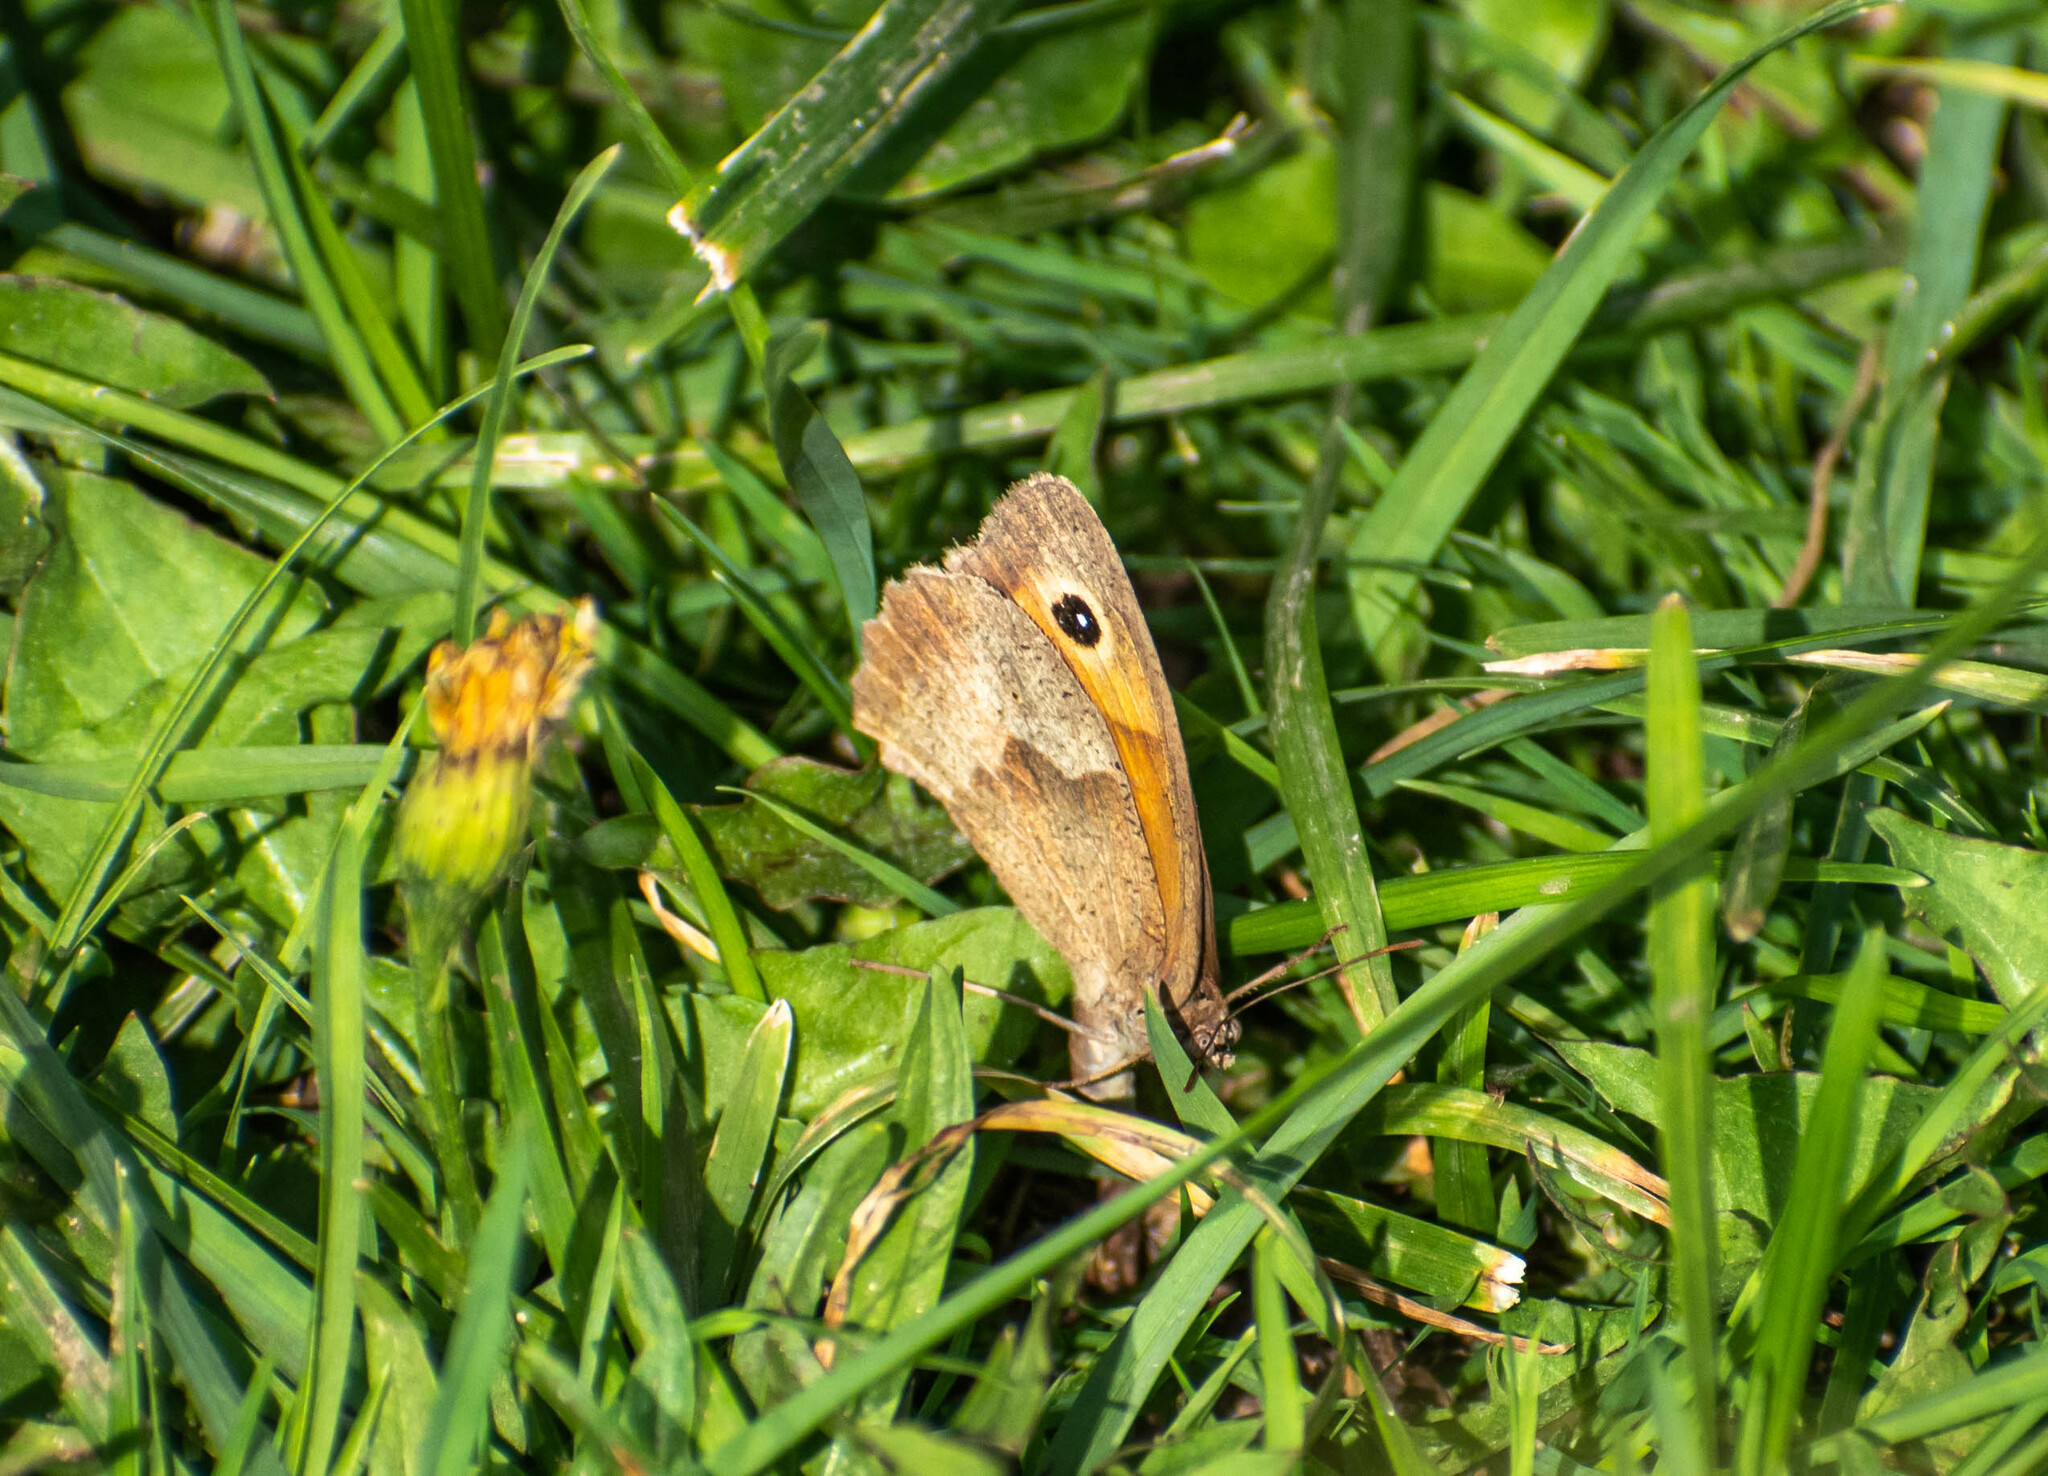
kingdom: Animalia
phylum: Arthropoda
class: Insecta
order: Lepidoptera
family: Nymphalidae
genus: Maniola
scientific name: Maniola jurtina
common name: Meadow brown
